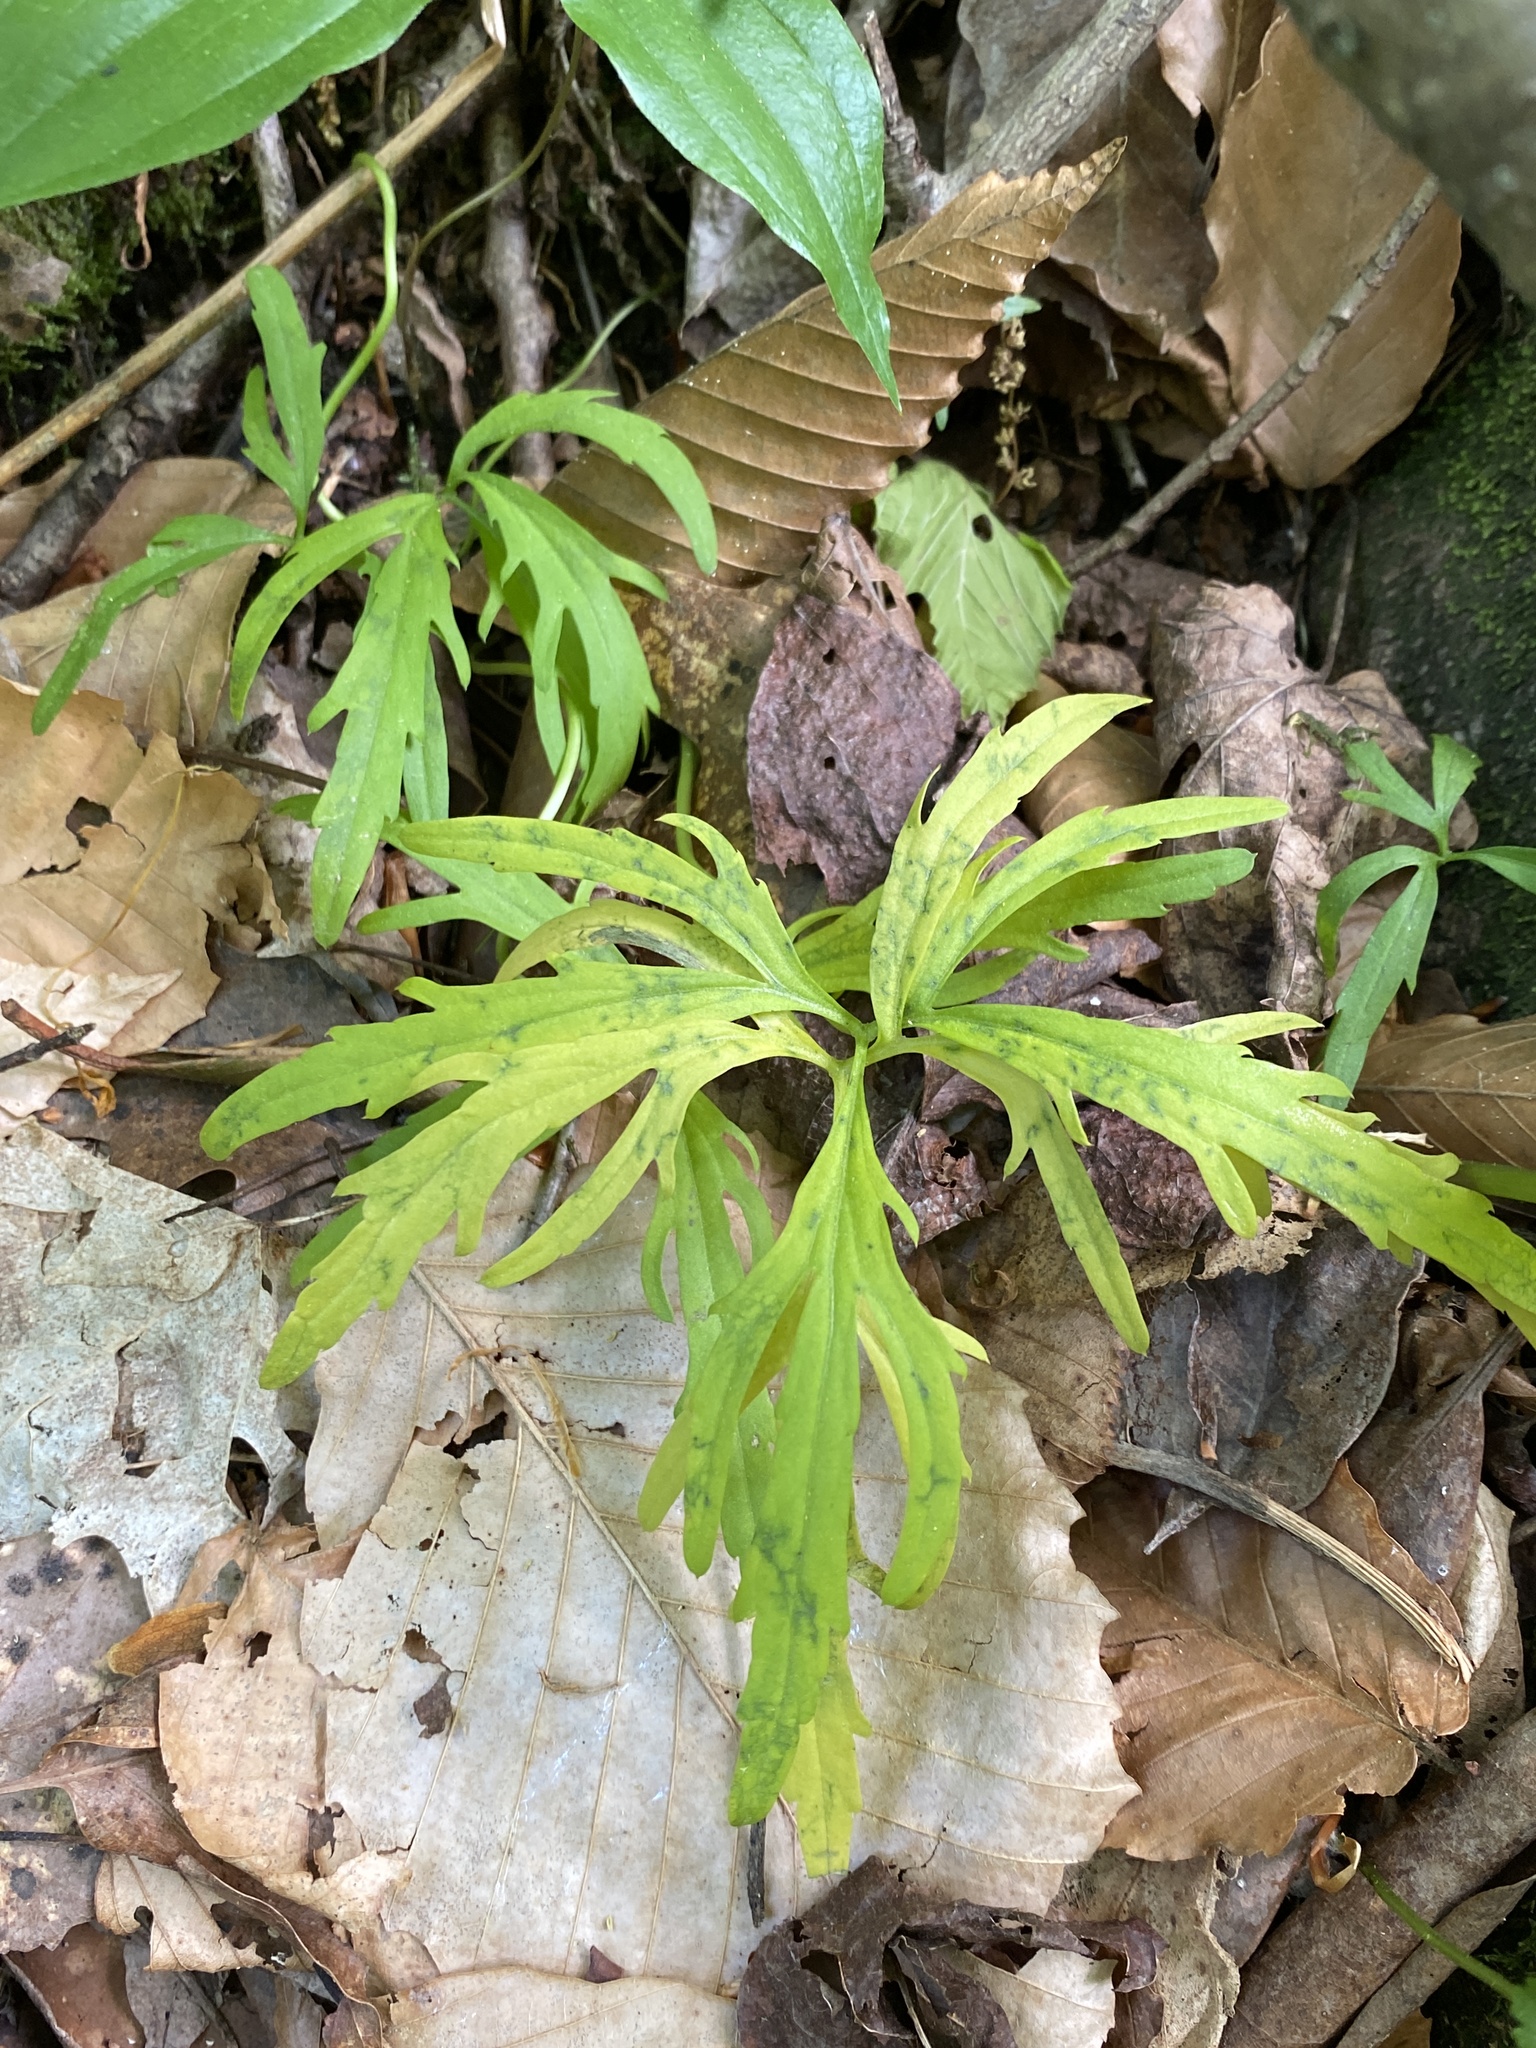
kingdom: Plantae
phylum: Tracheophyta
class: Magnoliopsida
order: Brassicales
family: Brassicaceae
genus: Cardamine
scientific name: Cardamine concatenata
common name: Cut-leaf toothcup
